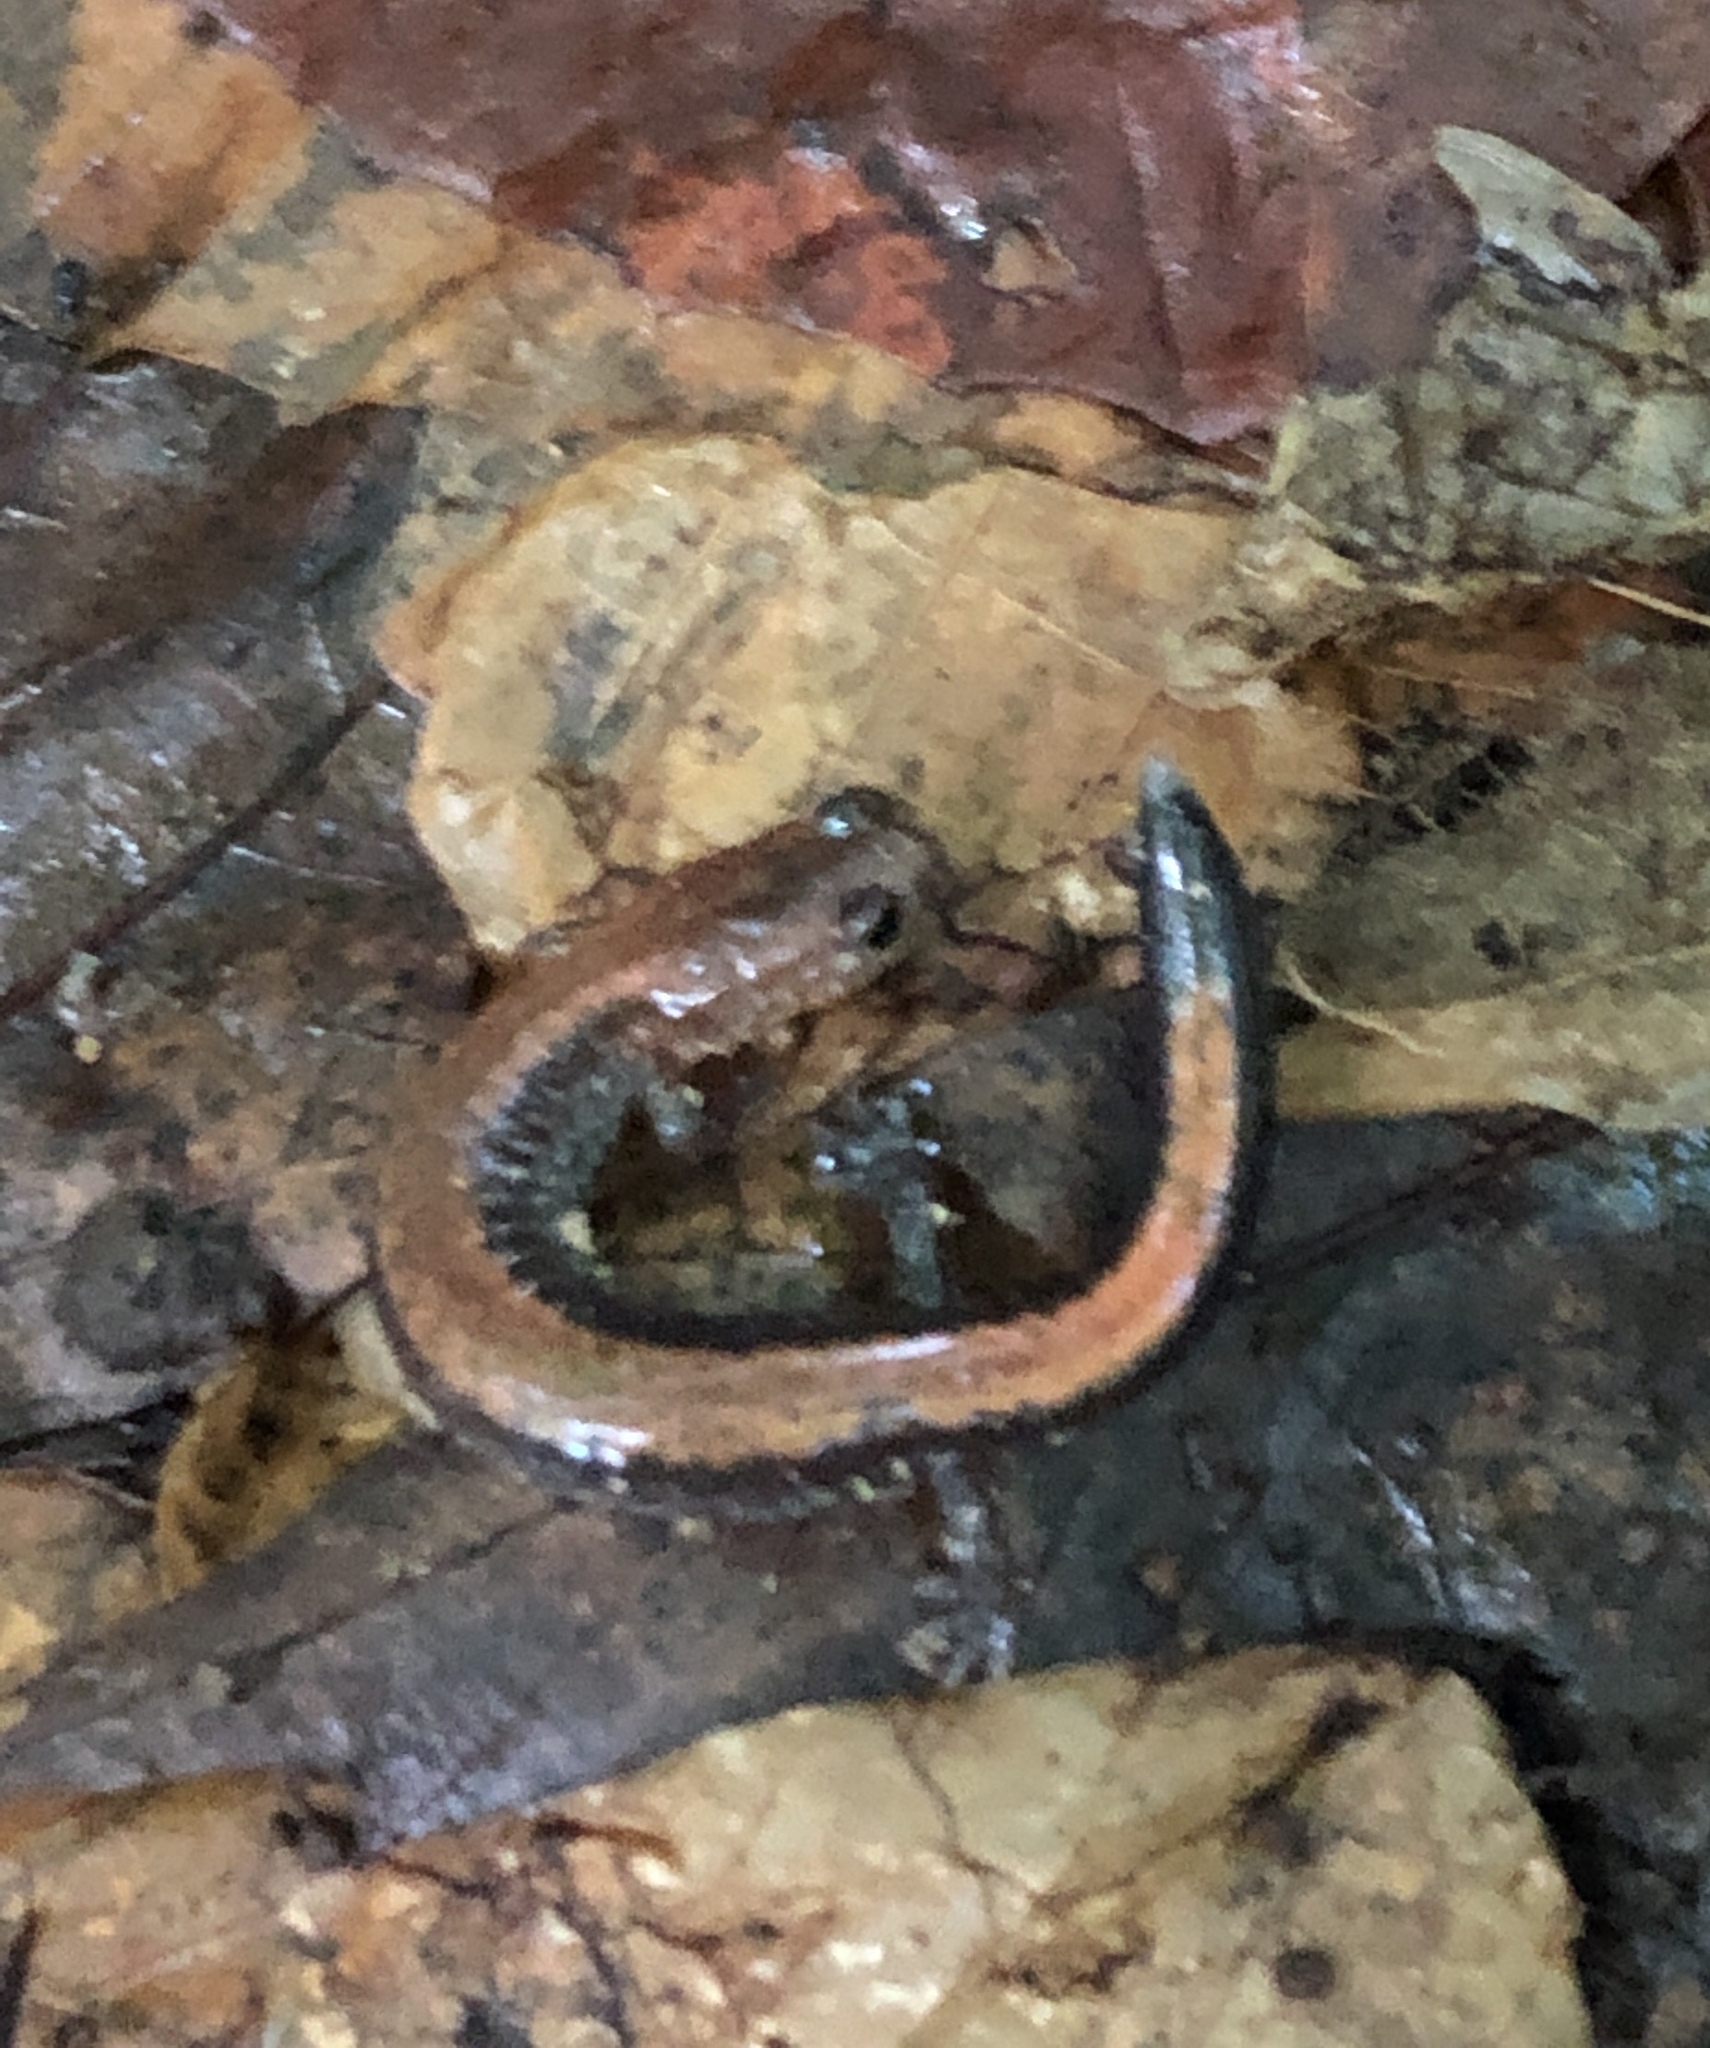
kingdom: Animalia
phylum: Chordata
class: Amphibia
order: Caudata
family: Plethodontidae
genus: Plethodon
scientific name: Plethodon cinereus
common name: Redback salamander
